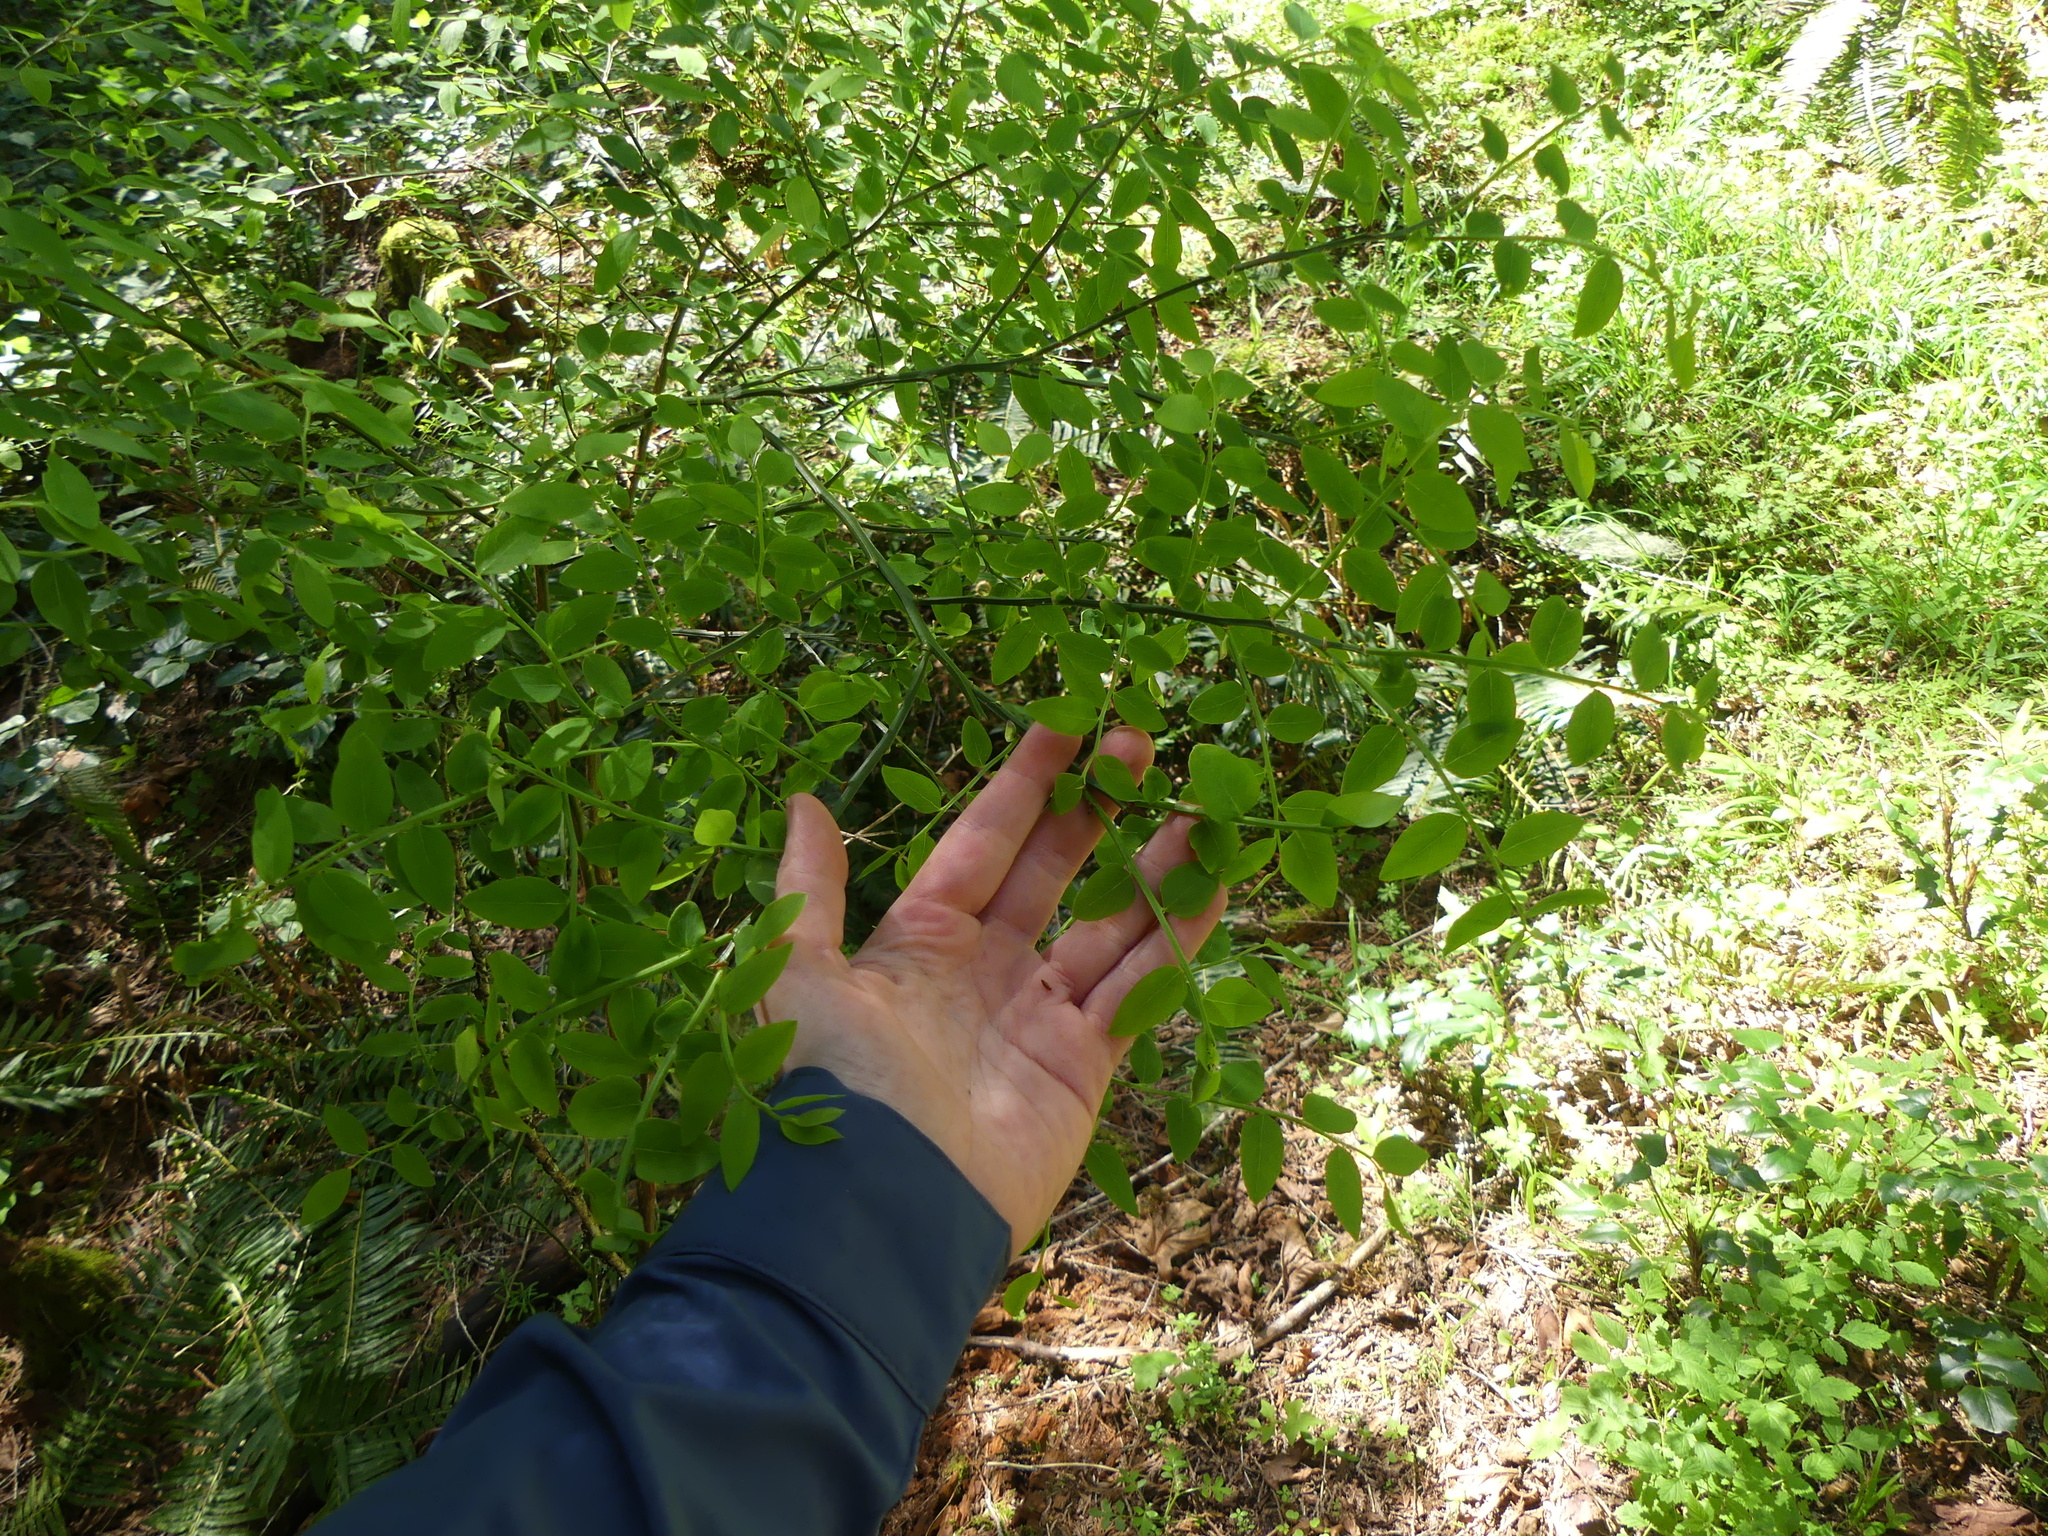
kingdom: Plantae
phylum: Tracheophyta
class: Magnoliopsida
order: Ericales
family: Ericaceae
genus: Vaccinium
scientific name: Vaccinium parvifolium
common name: Red-huckleberry
